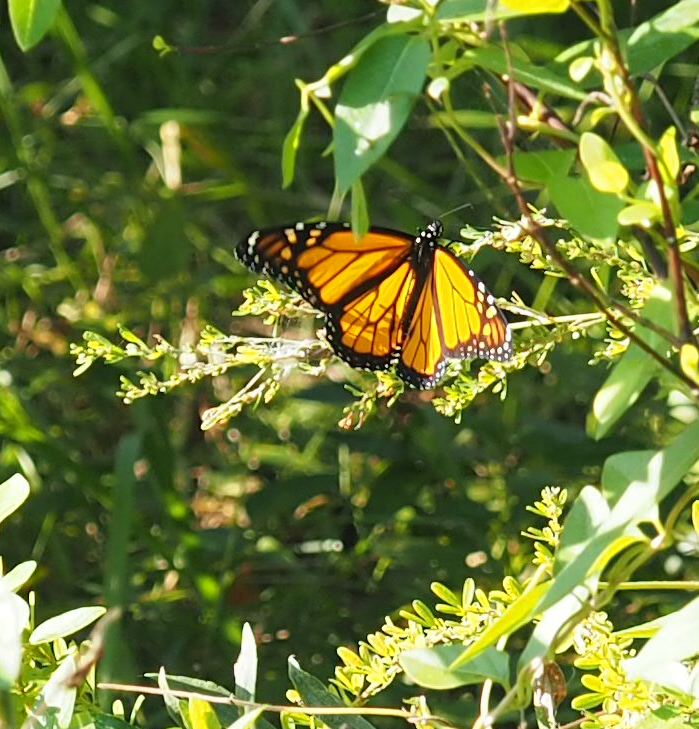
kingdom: Animalia
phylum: Arthropoda
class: Insecta
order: Lepidoptera
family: Nymphalidae
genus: Danaus
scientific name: Danaus plexippus
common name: Monarch
